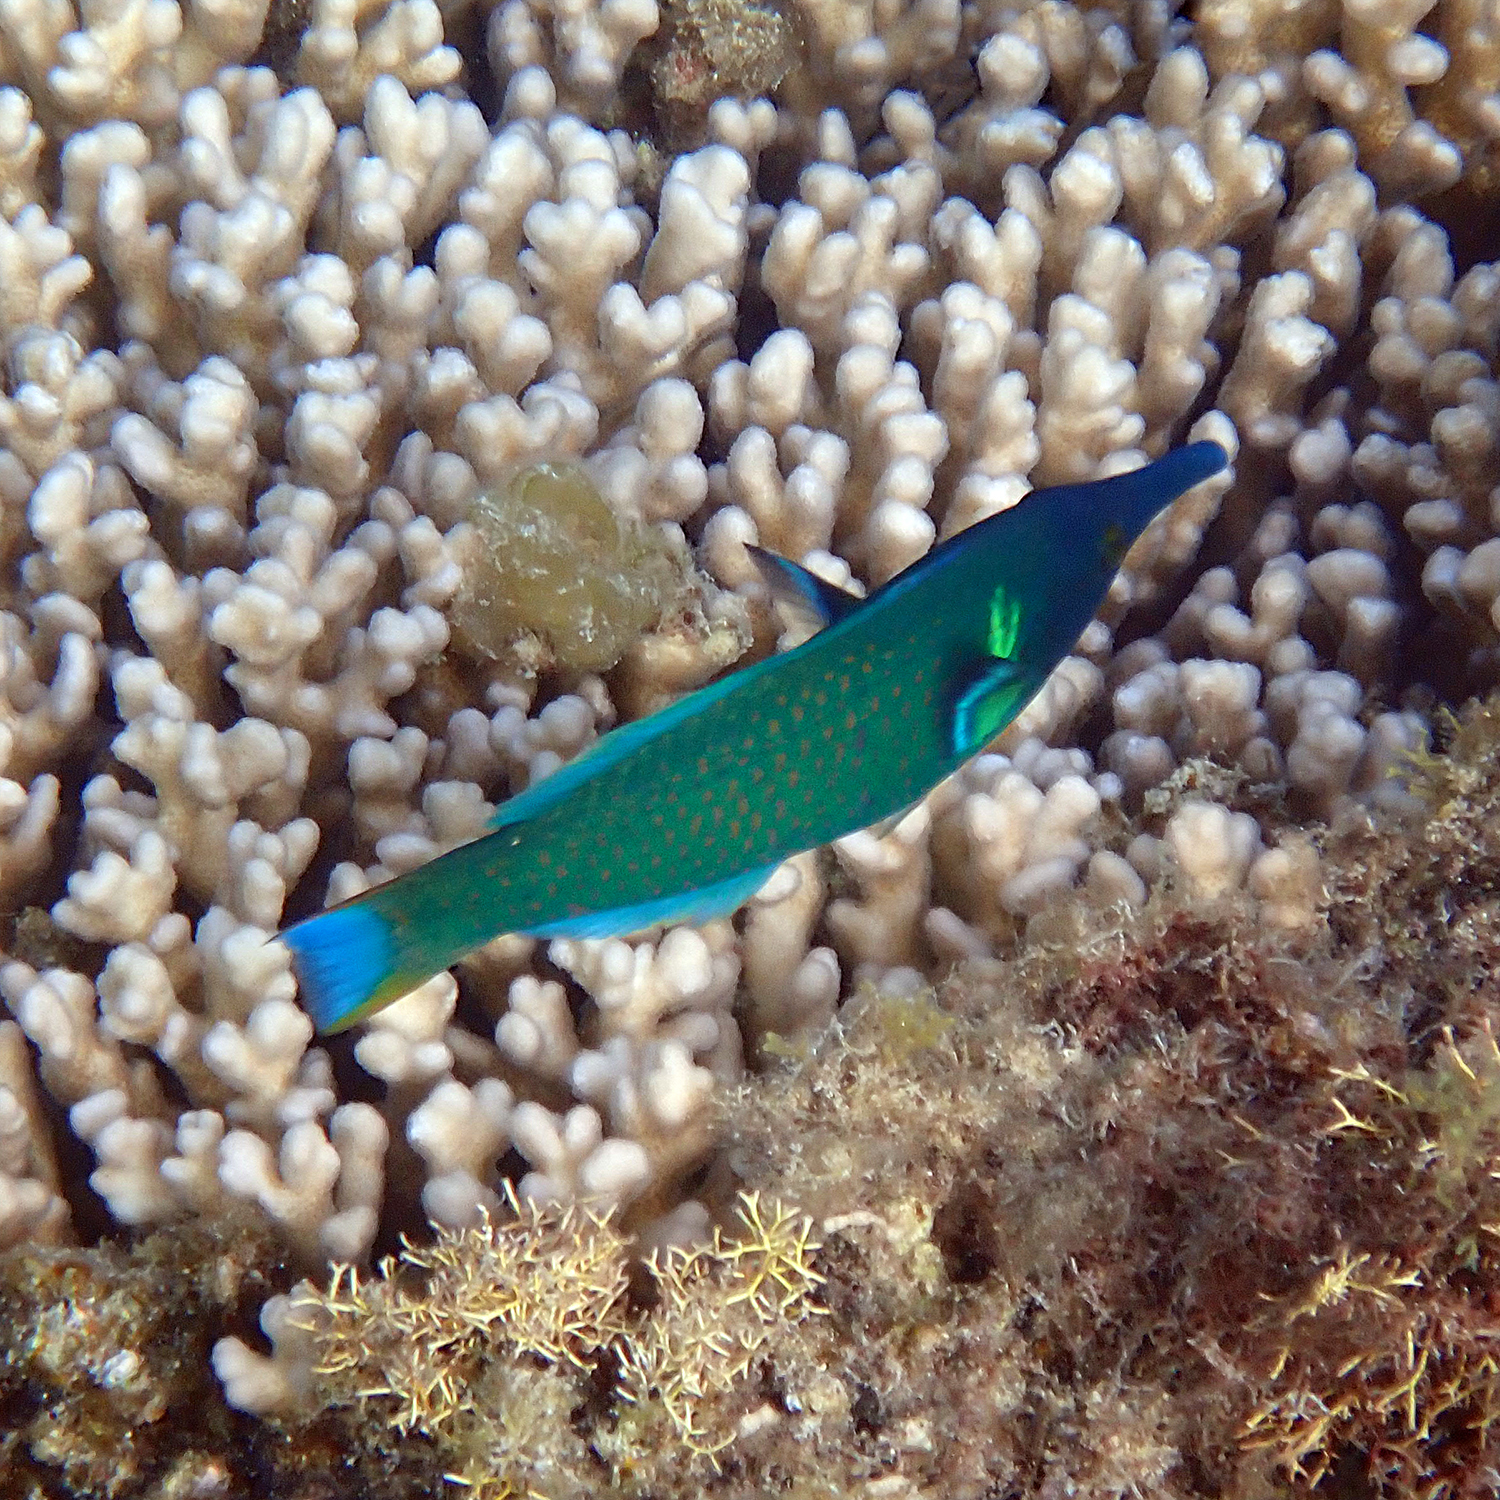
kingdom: Animalia
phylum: Chordata
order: Perciformes
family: Labridae
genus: Gomphosus
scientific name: Gomphosus varius
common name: Bird wrasse
